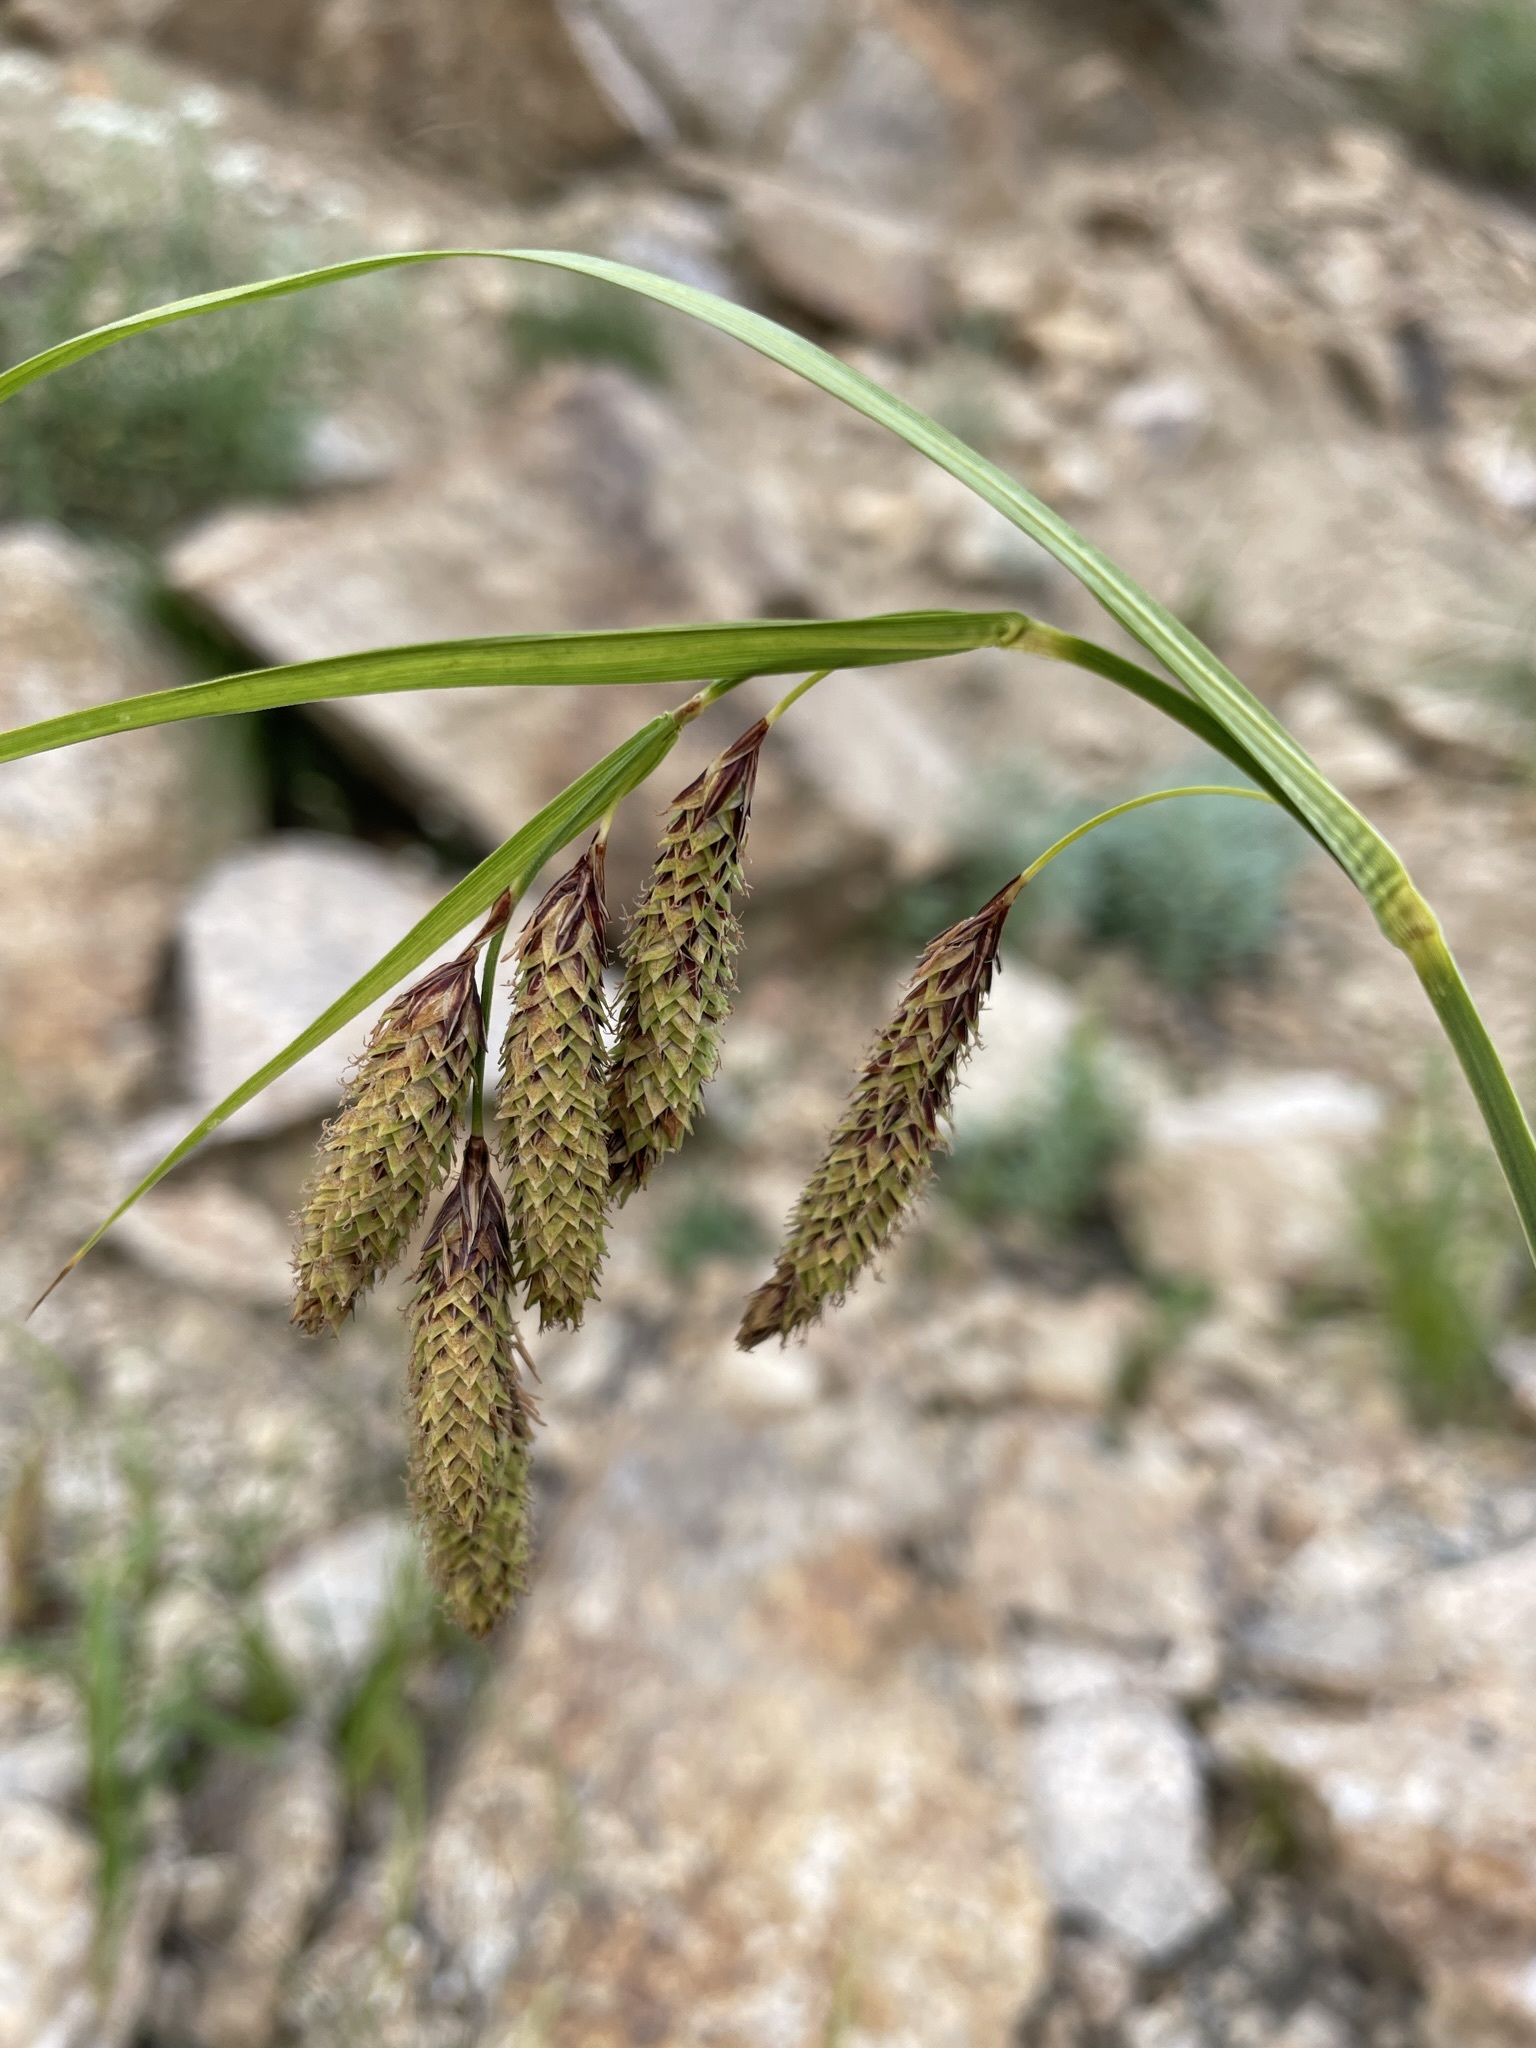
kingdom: Plantae
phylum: Tracheophyta
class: Liliopsida
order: Poales
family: Cyperaceae
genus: Carex
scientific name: Carex mertensii
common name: Mertens' sedge
